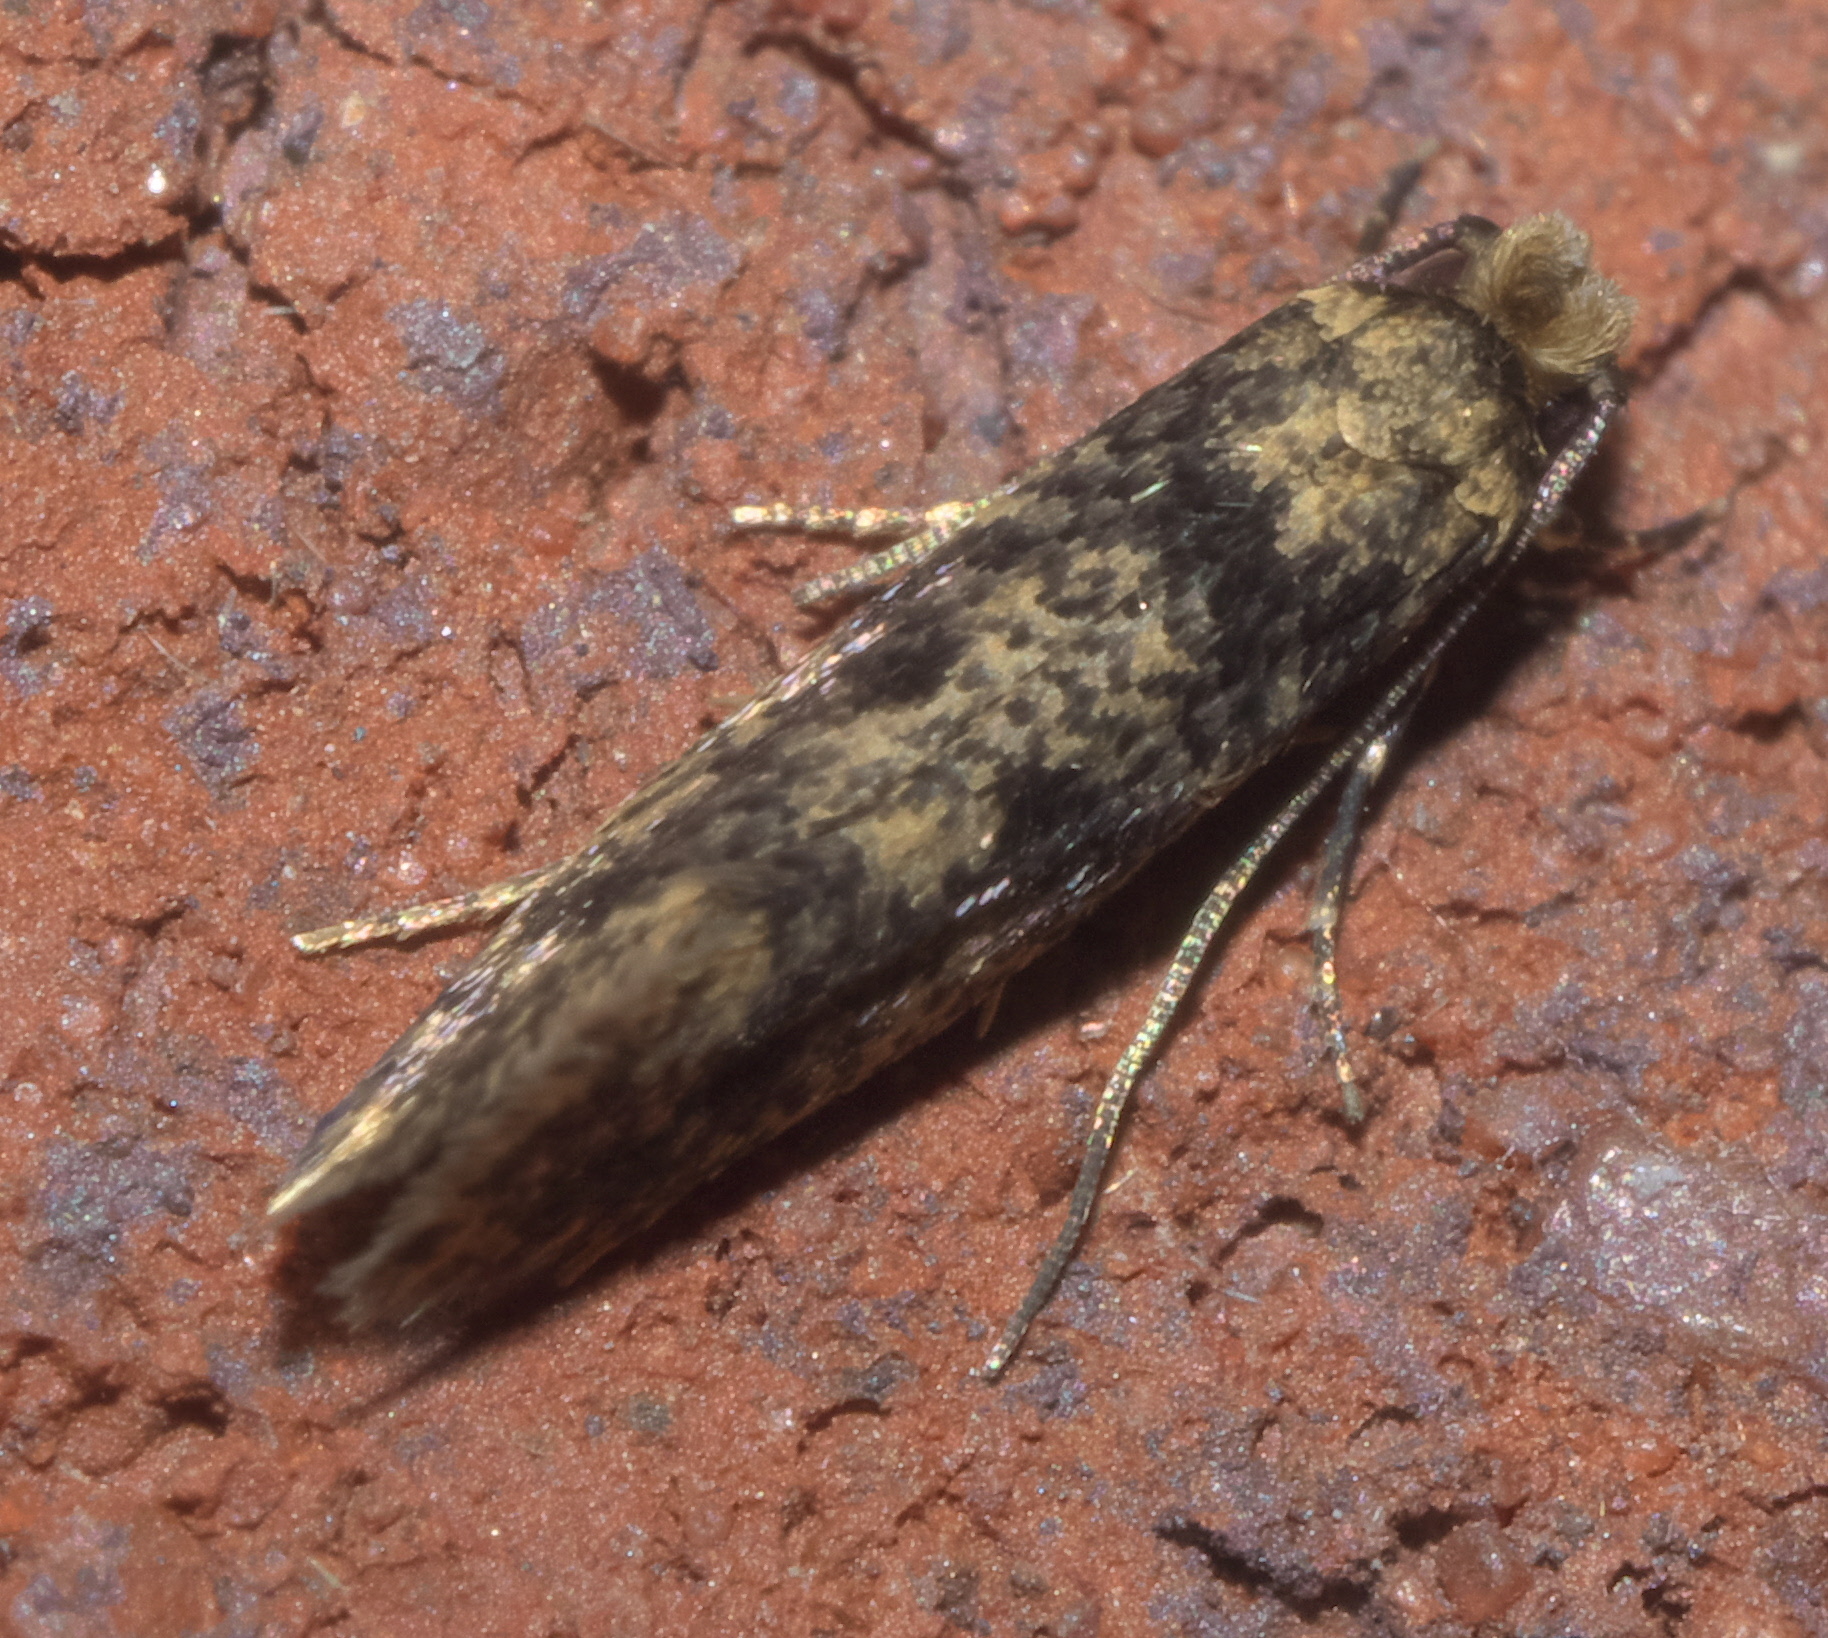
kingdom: Animalia
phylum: Arthropoda
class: Insecta
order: Lepidoptera
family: Tineidae
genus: Niditinea
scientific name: Niditinea fuscella
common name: Brown-dotted clothes moth
